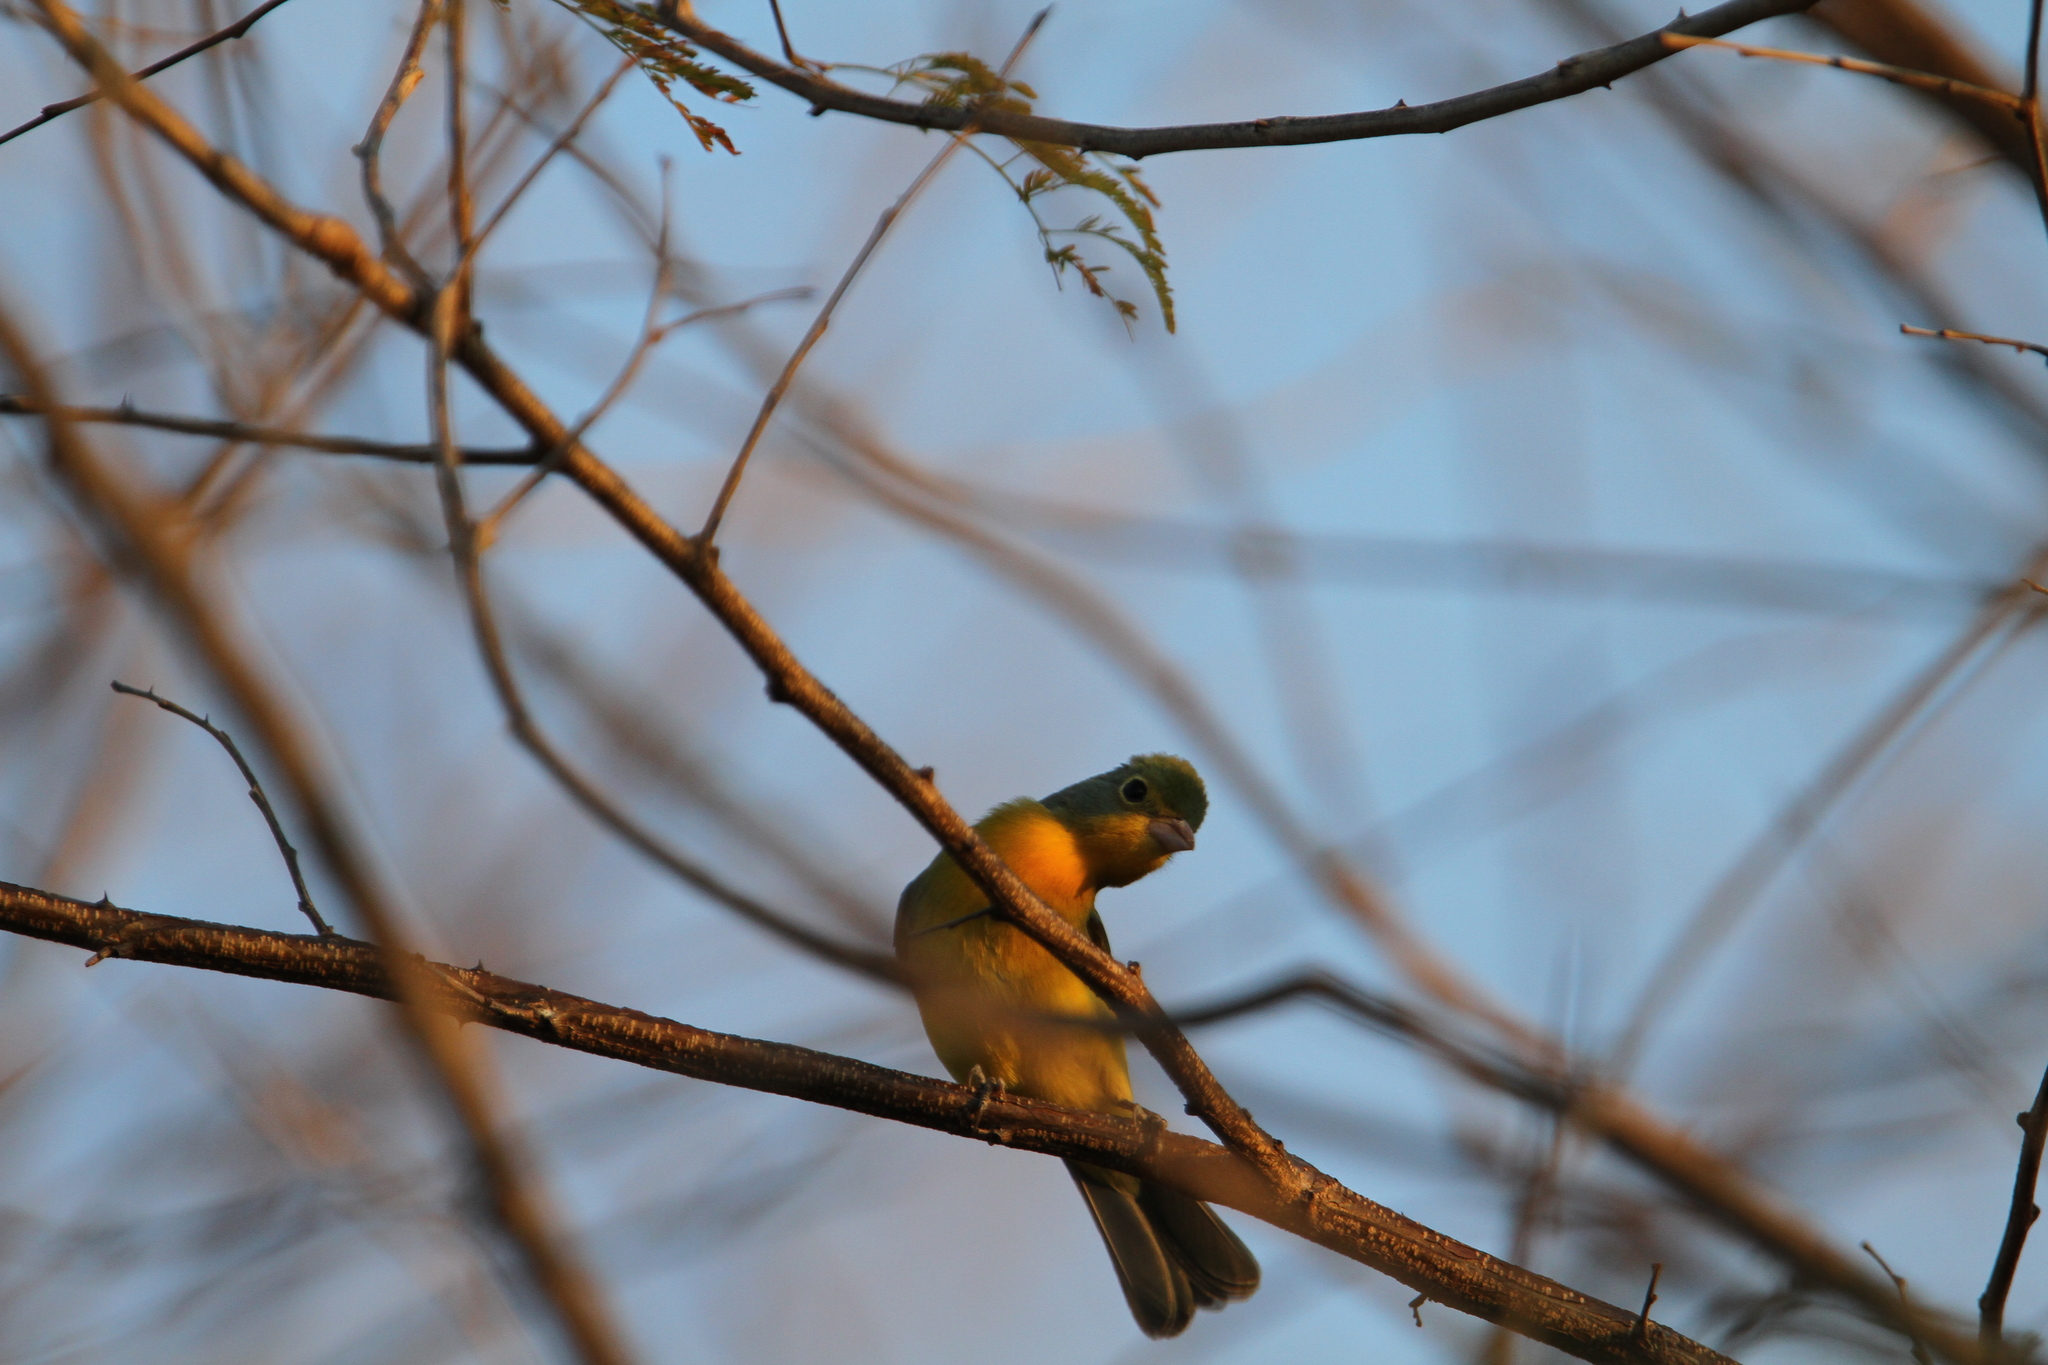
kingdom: Animalia
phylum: Chordata
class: Aves
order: Passeriformes
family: Cardinalidae
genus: Passerina
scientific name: Passerina leclancherii
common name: Orange-breasted bunting
